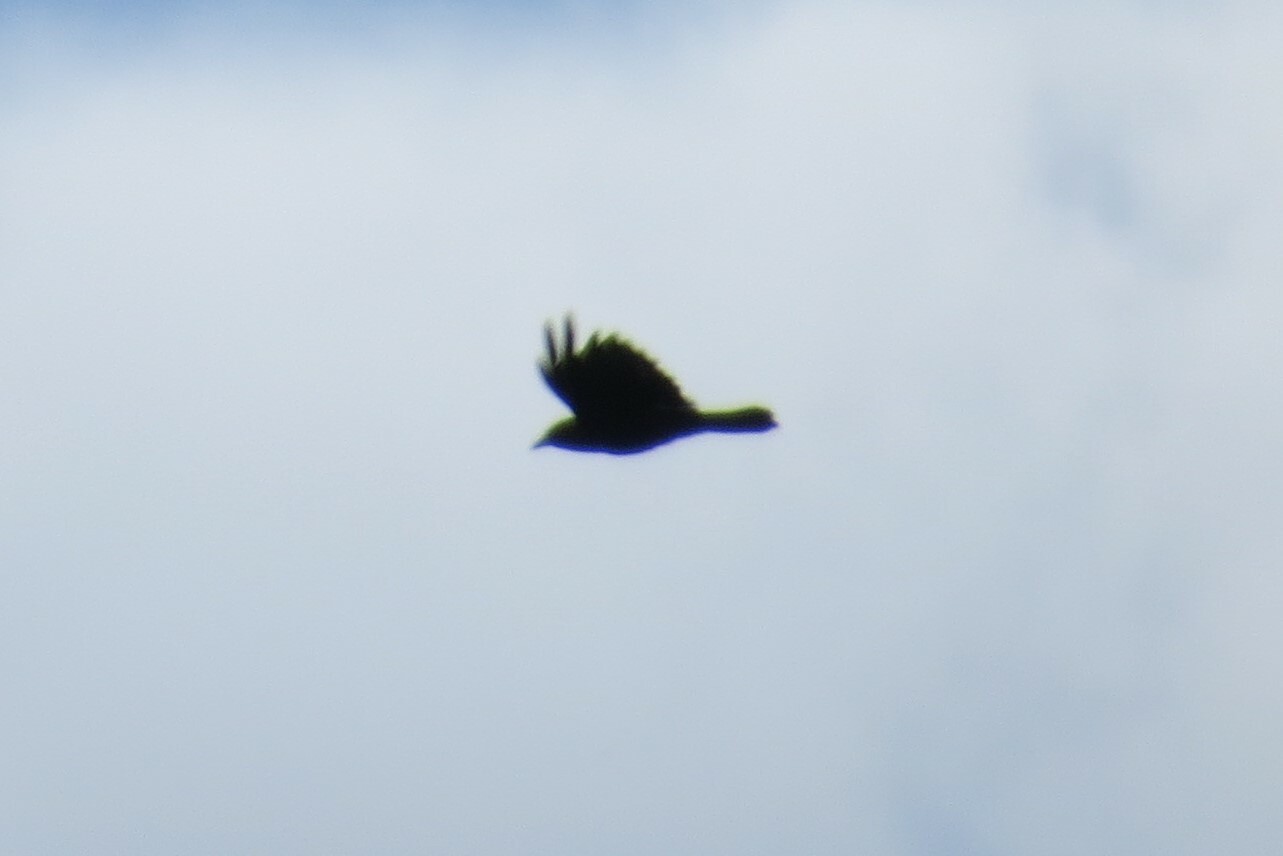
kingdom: Animalia
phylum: Chordata
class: Aves
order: Passeriformes
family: Corvidae
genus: Corvus
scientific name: Corvus brachyrhynchos
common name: American crow
